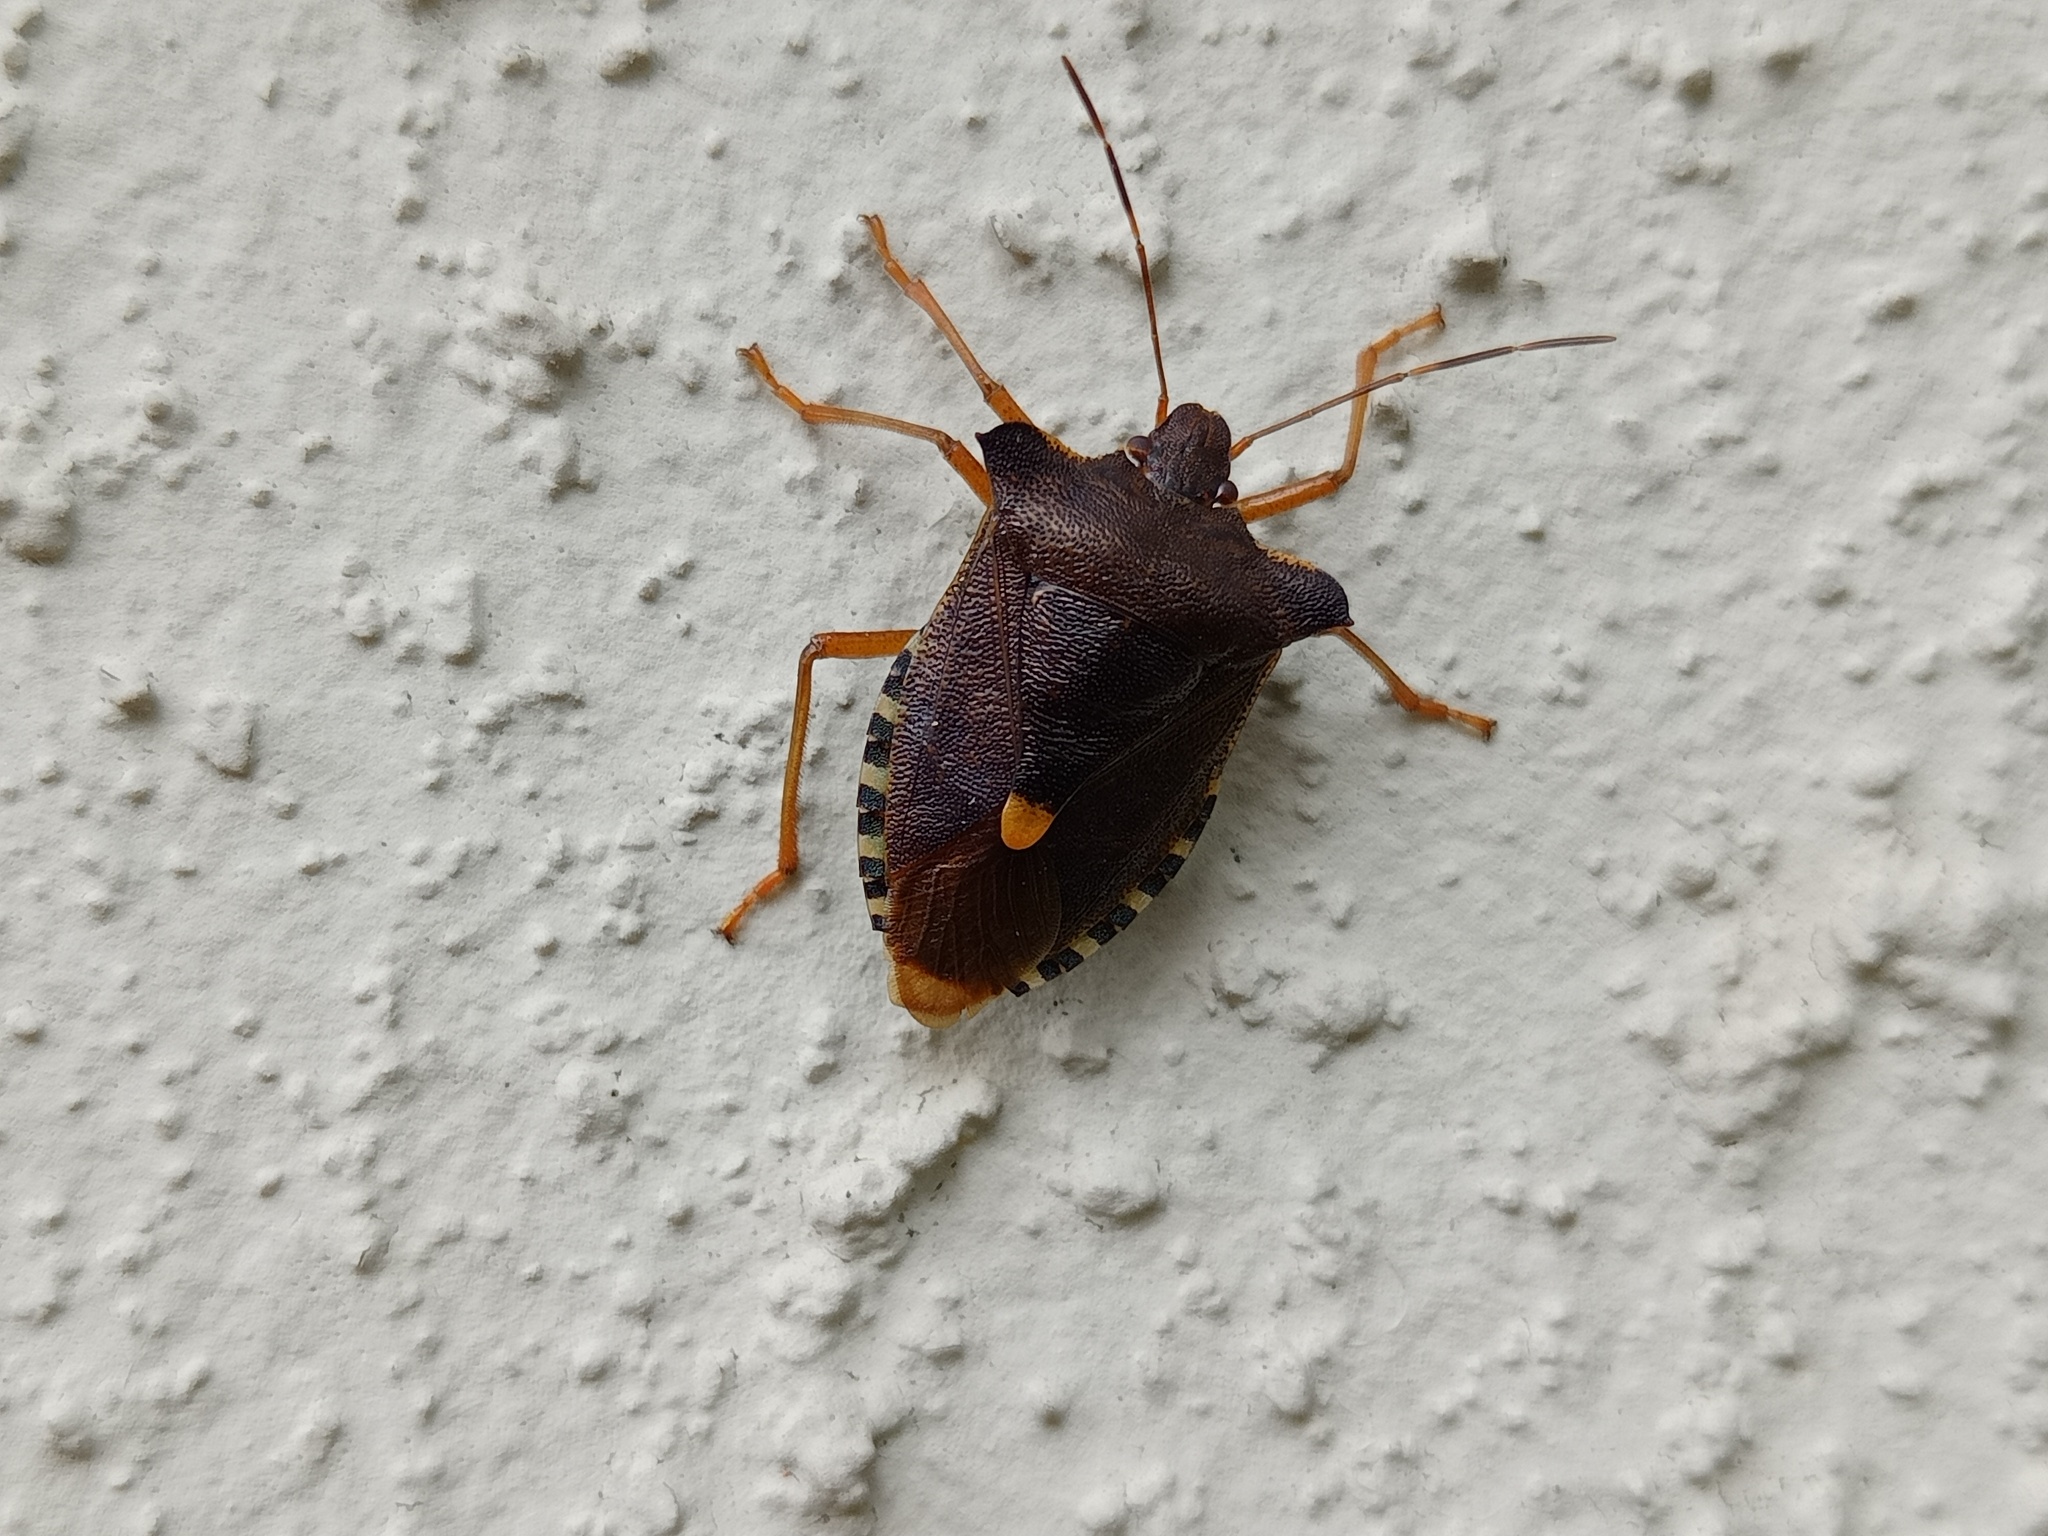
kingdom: Animalia
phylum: Arthropoda
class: Insecta
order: Hemiptera
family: Pentatomidae
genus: Pentatoma
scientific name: Pentatoma rufipes
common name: Forest bug
